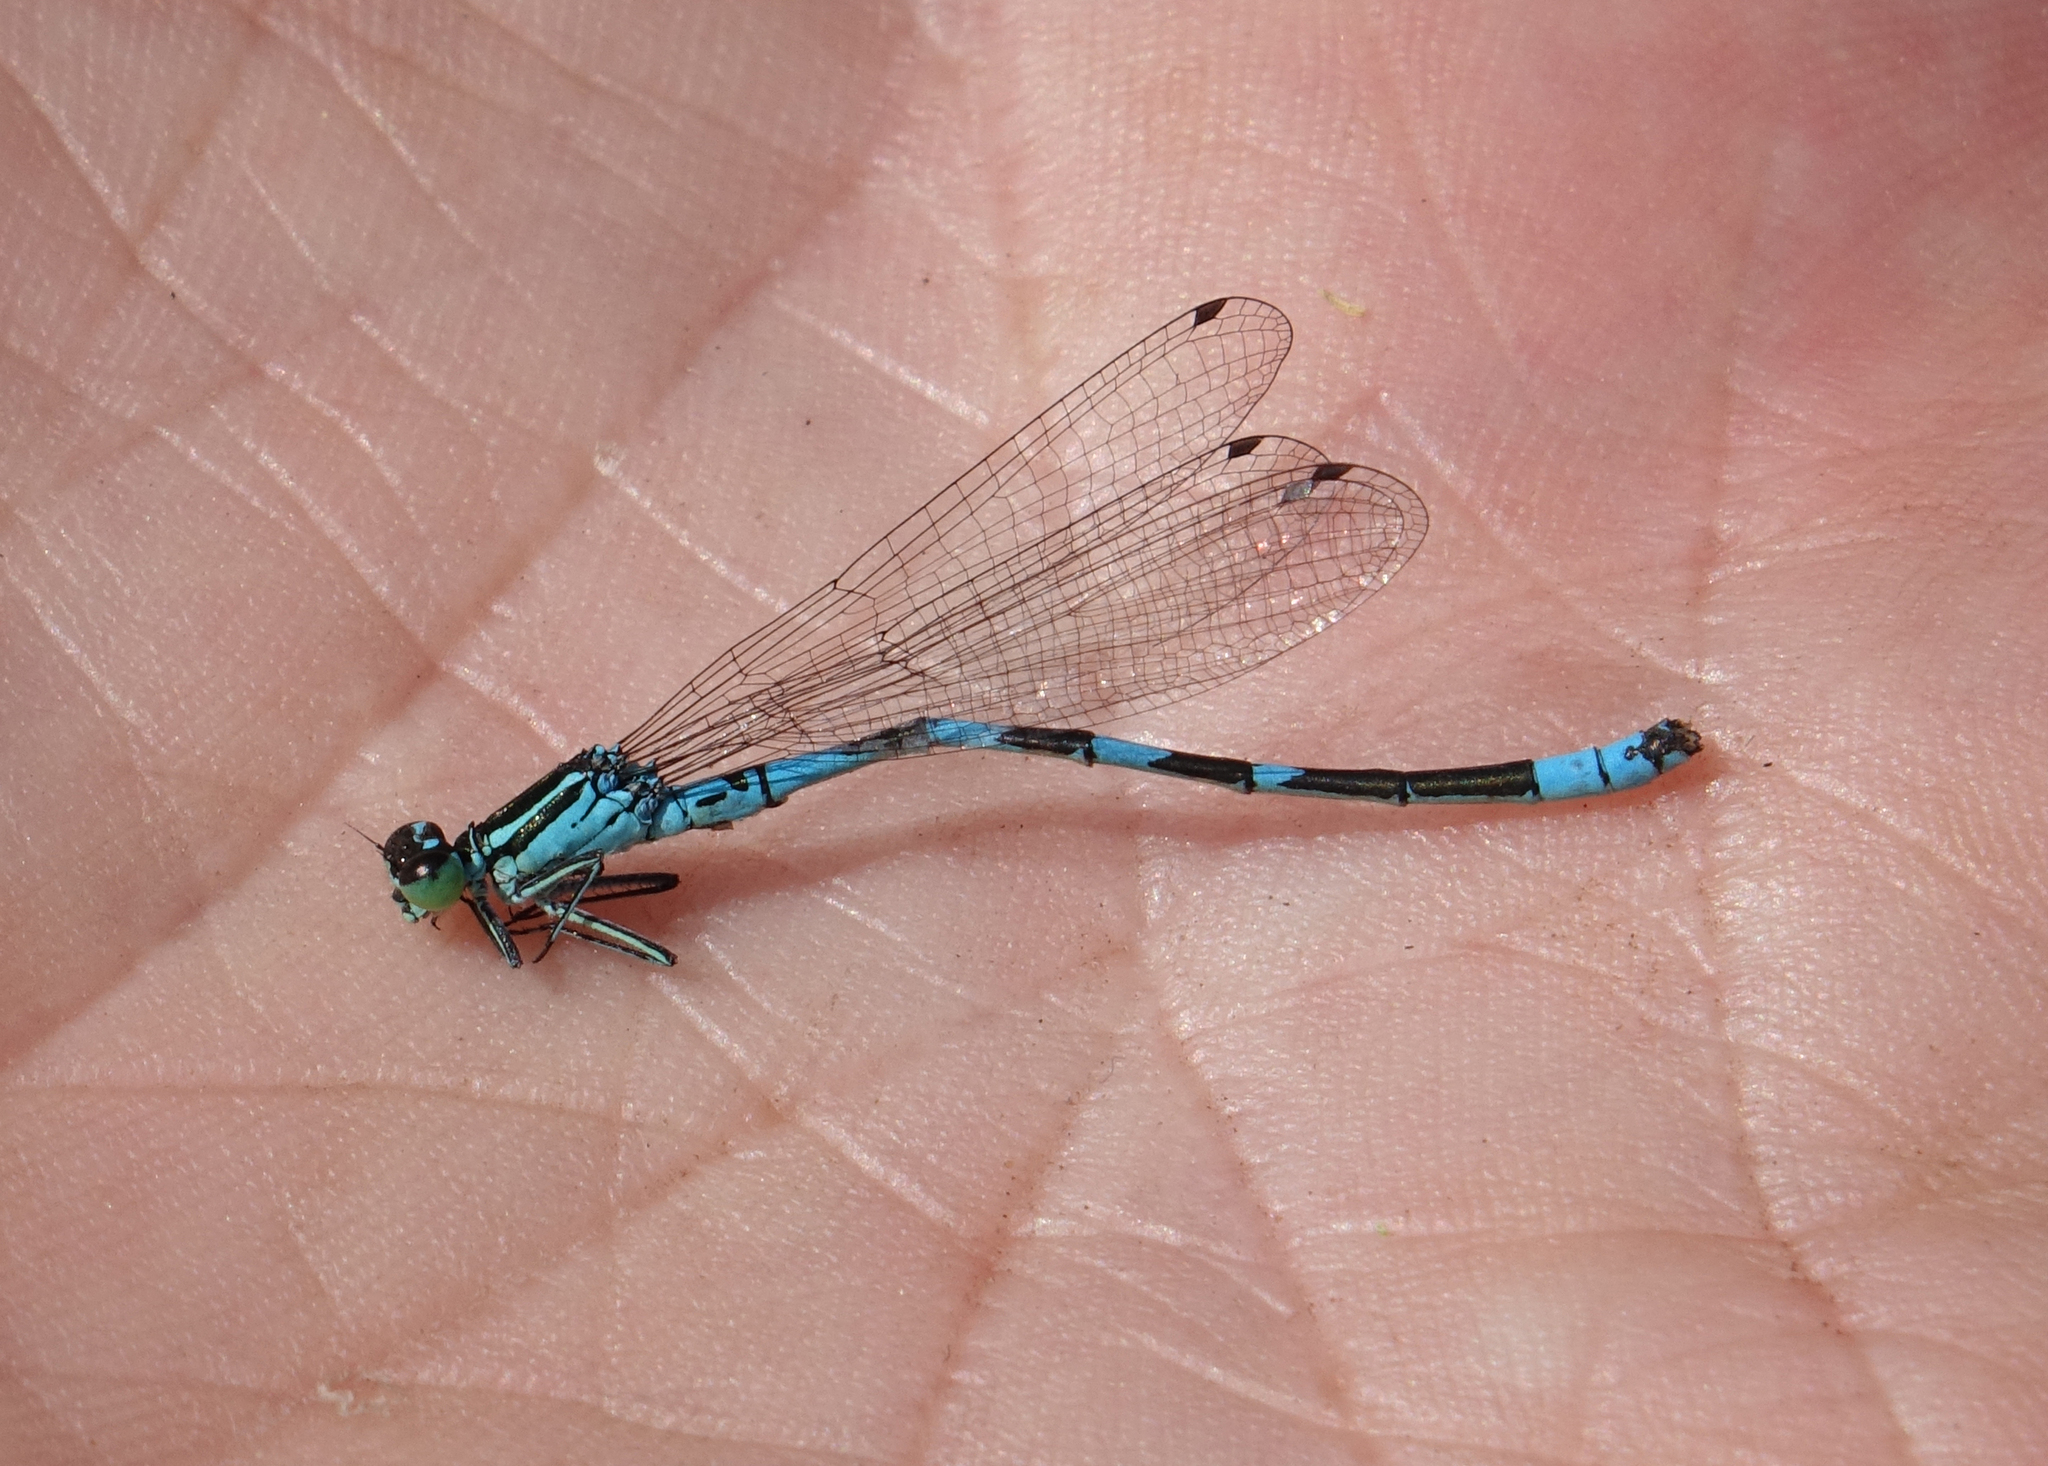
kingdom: Animalia
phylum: Arthropoda
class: Insecta
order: Odonata
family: Coenagrionidae
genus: Coenagrion
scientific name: Coenagrion hastulatum
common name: Spearhead bluet
